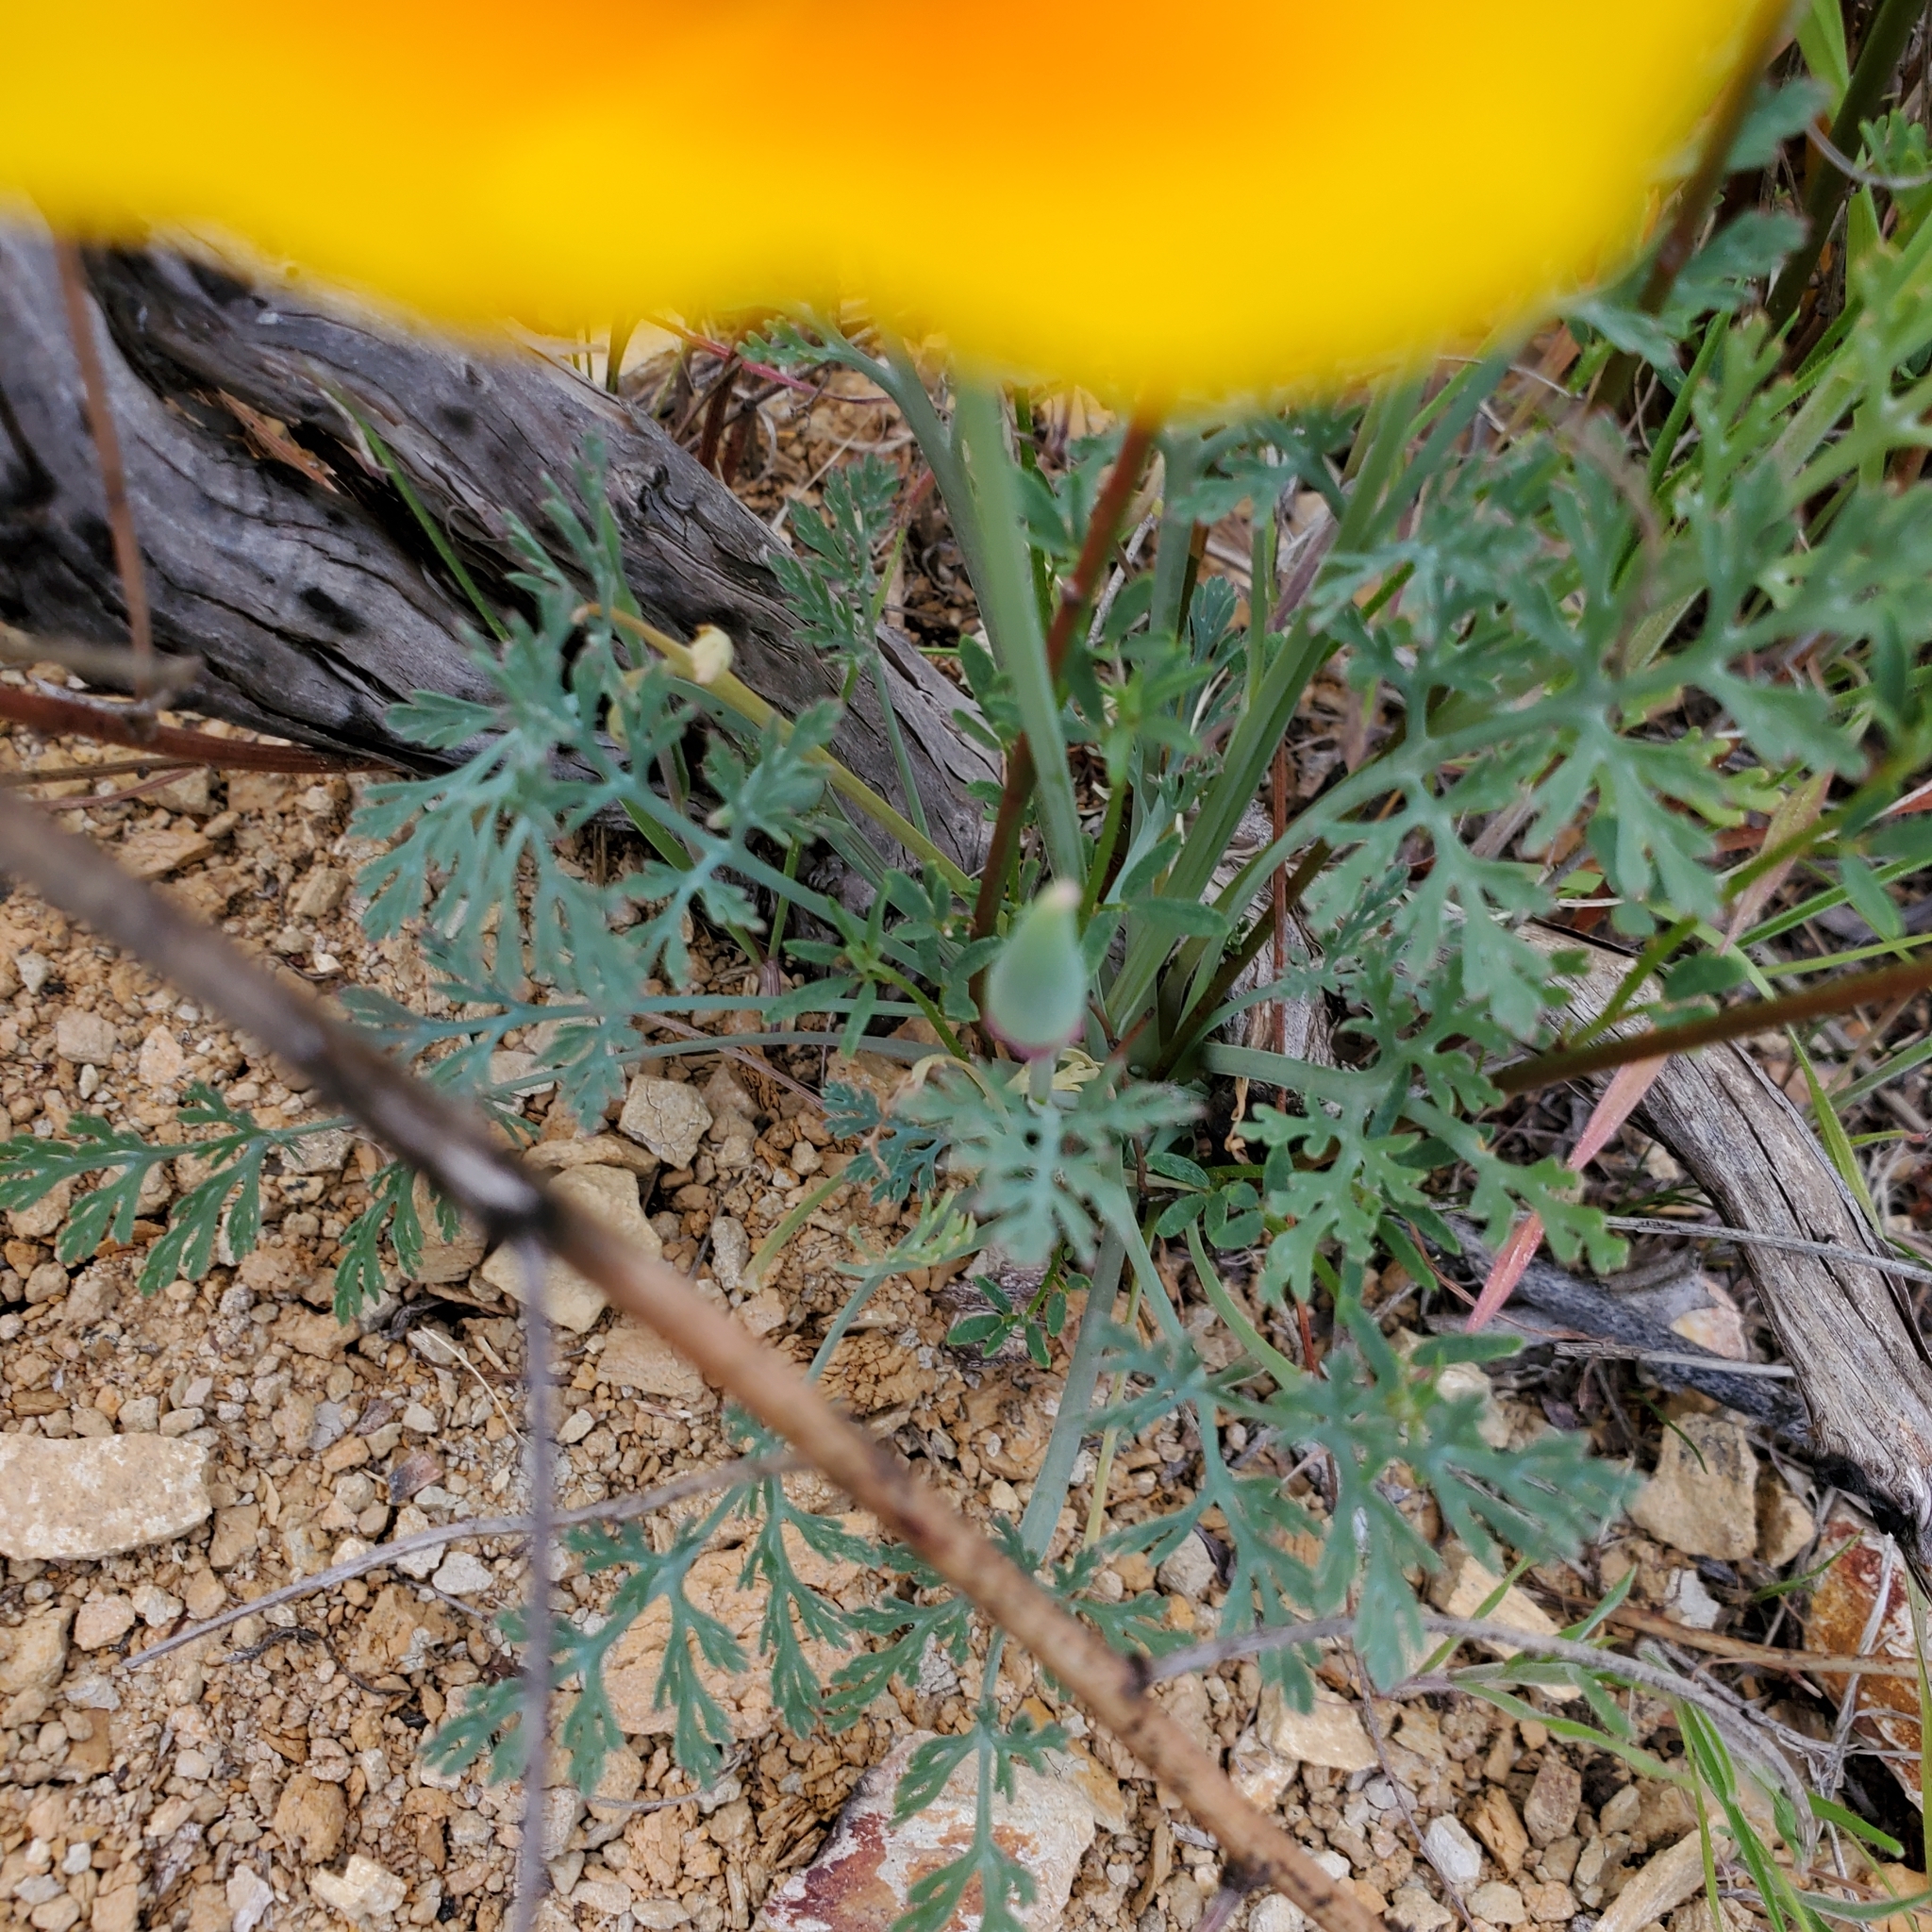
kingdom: Plantae
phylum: Tracheophyta
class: Magnoliopsida
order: Ranunculales
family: Papaveraceae
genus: Eschscholzia
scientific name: Eschscholzia californica
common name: California poppy
